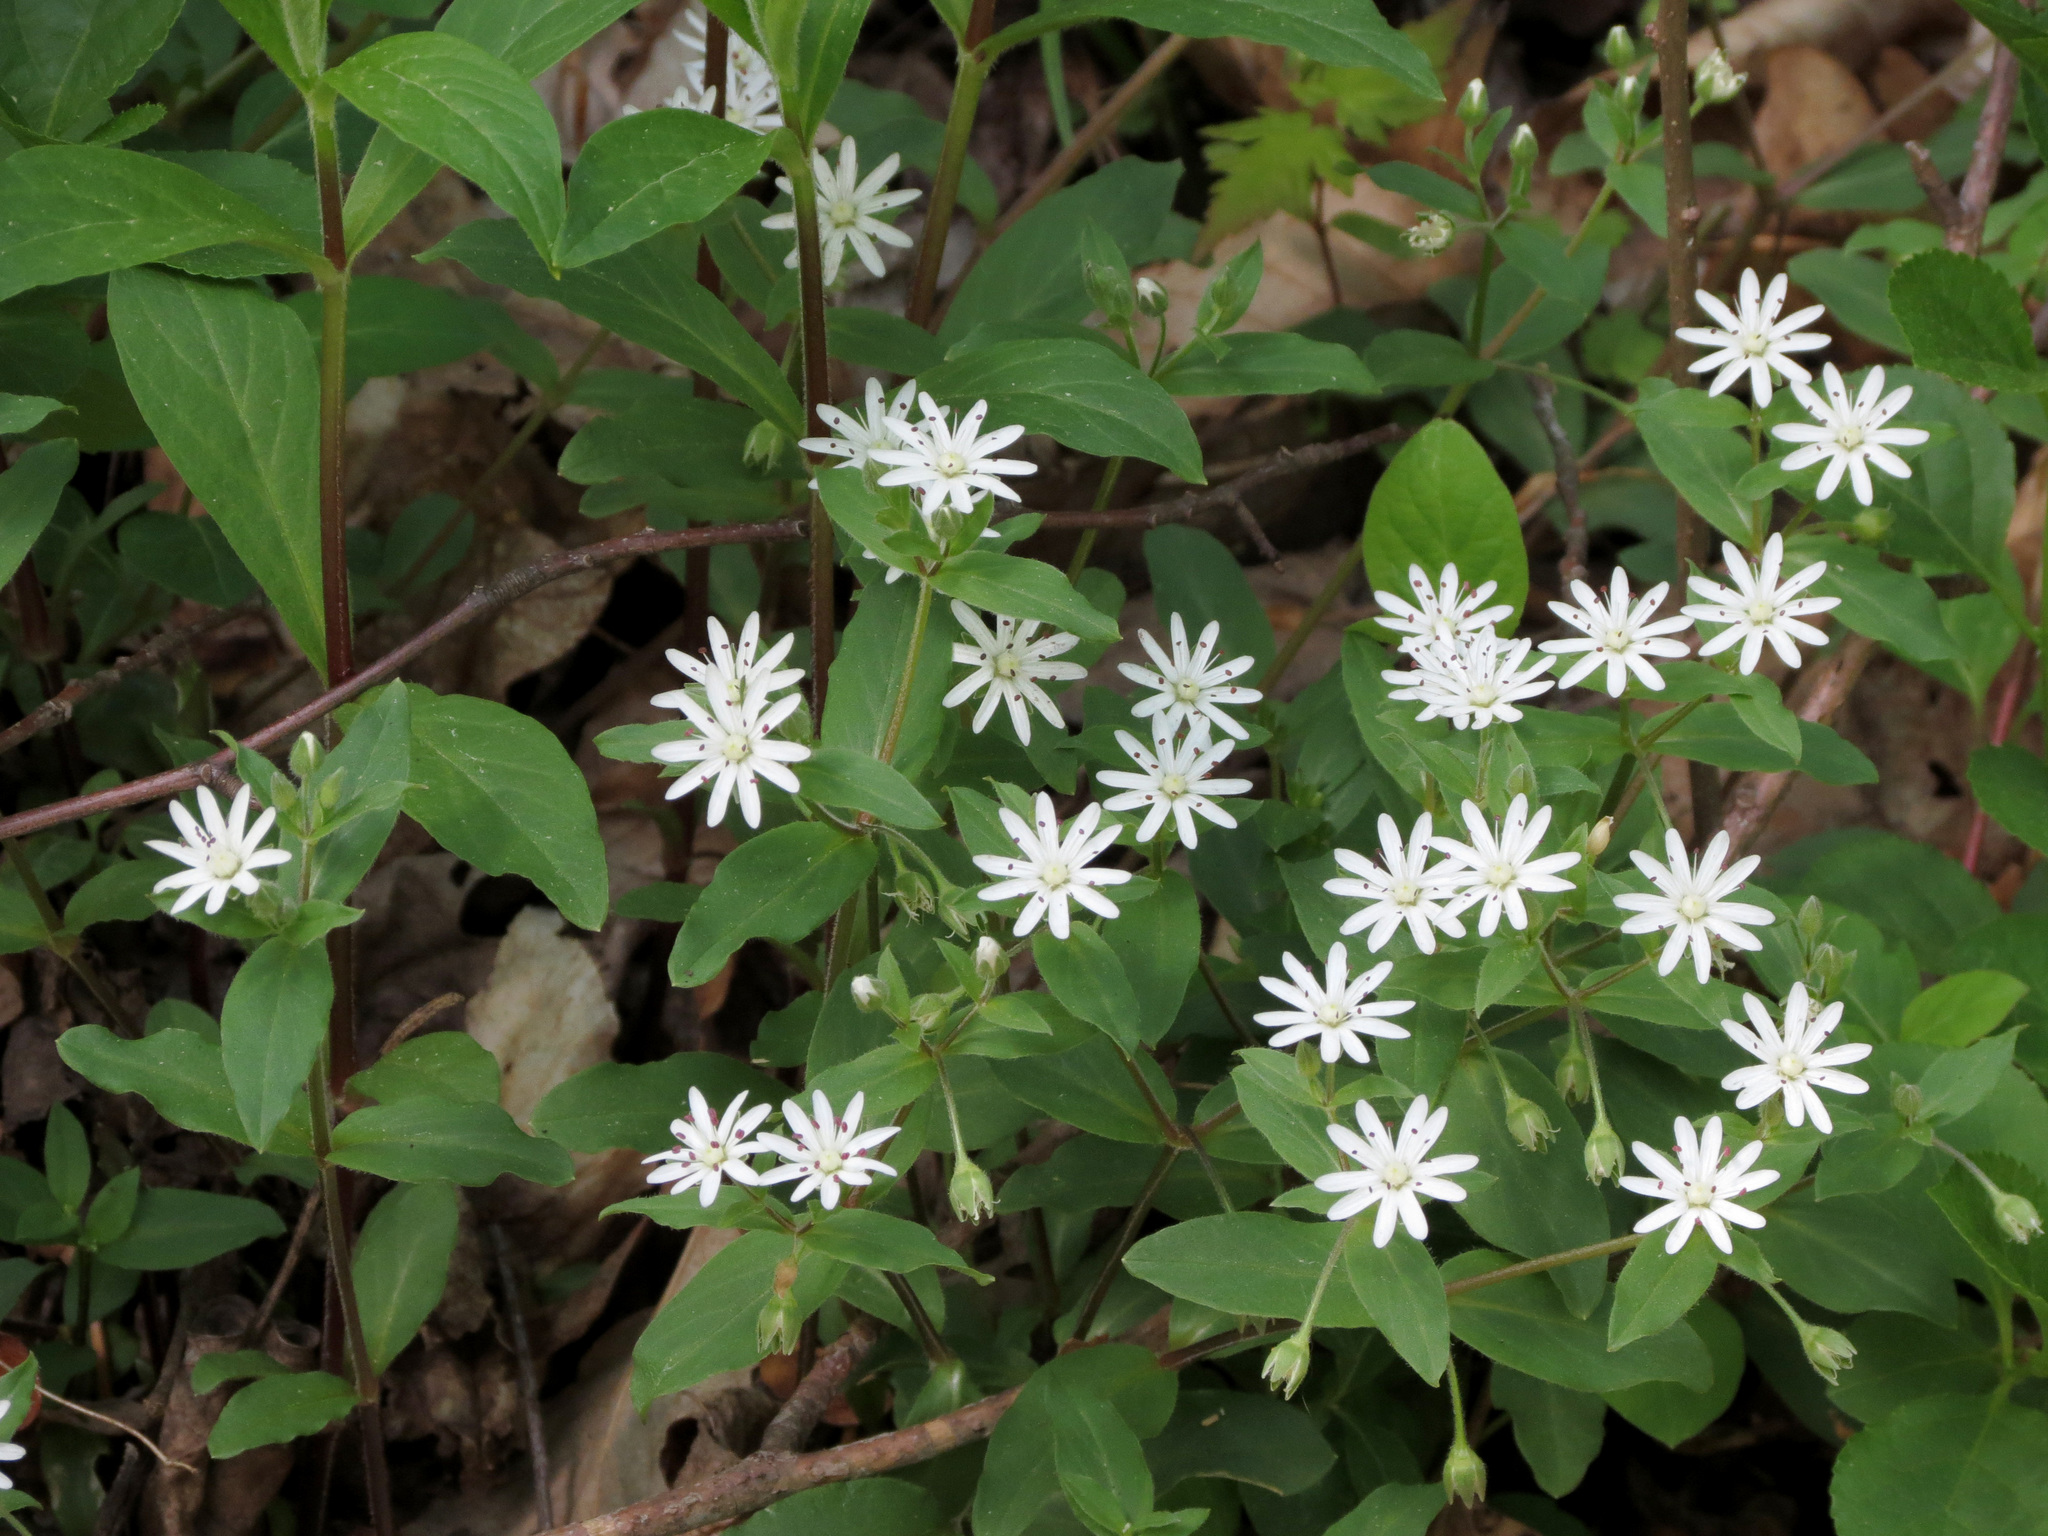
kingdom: Plantae
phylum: Tracheophyta
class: Magnoliopsida
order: Caryophyllales
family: Caryophyllaceae
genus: Stellaria
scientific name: Stellaria pubera
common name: Star chickweed
